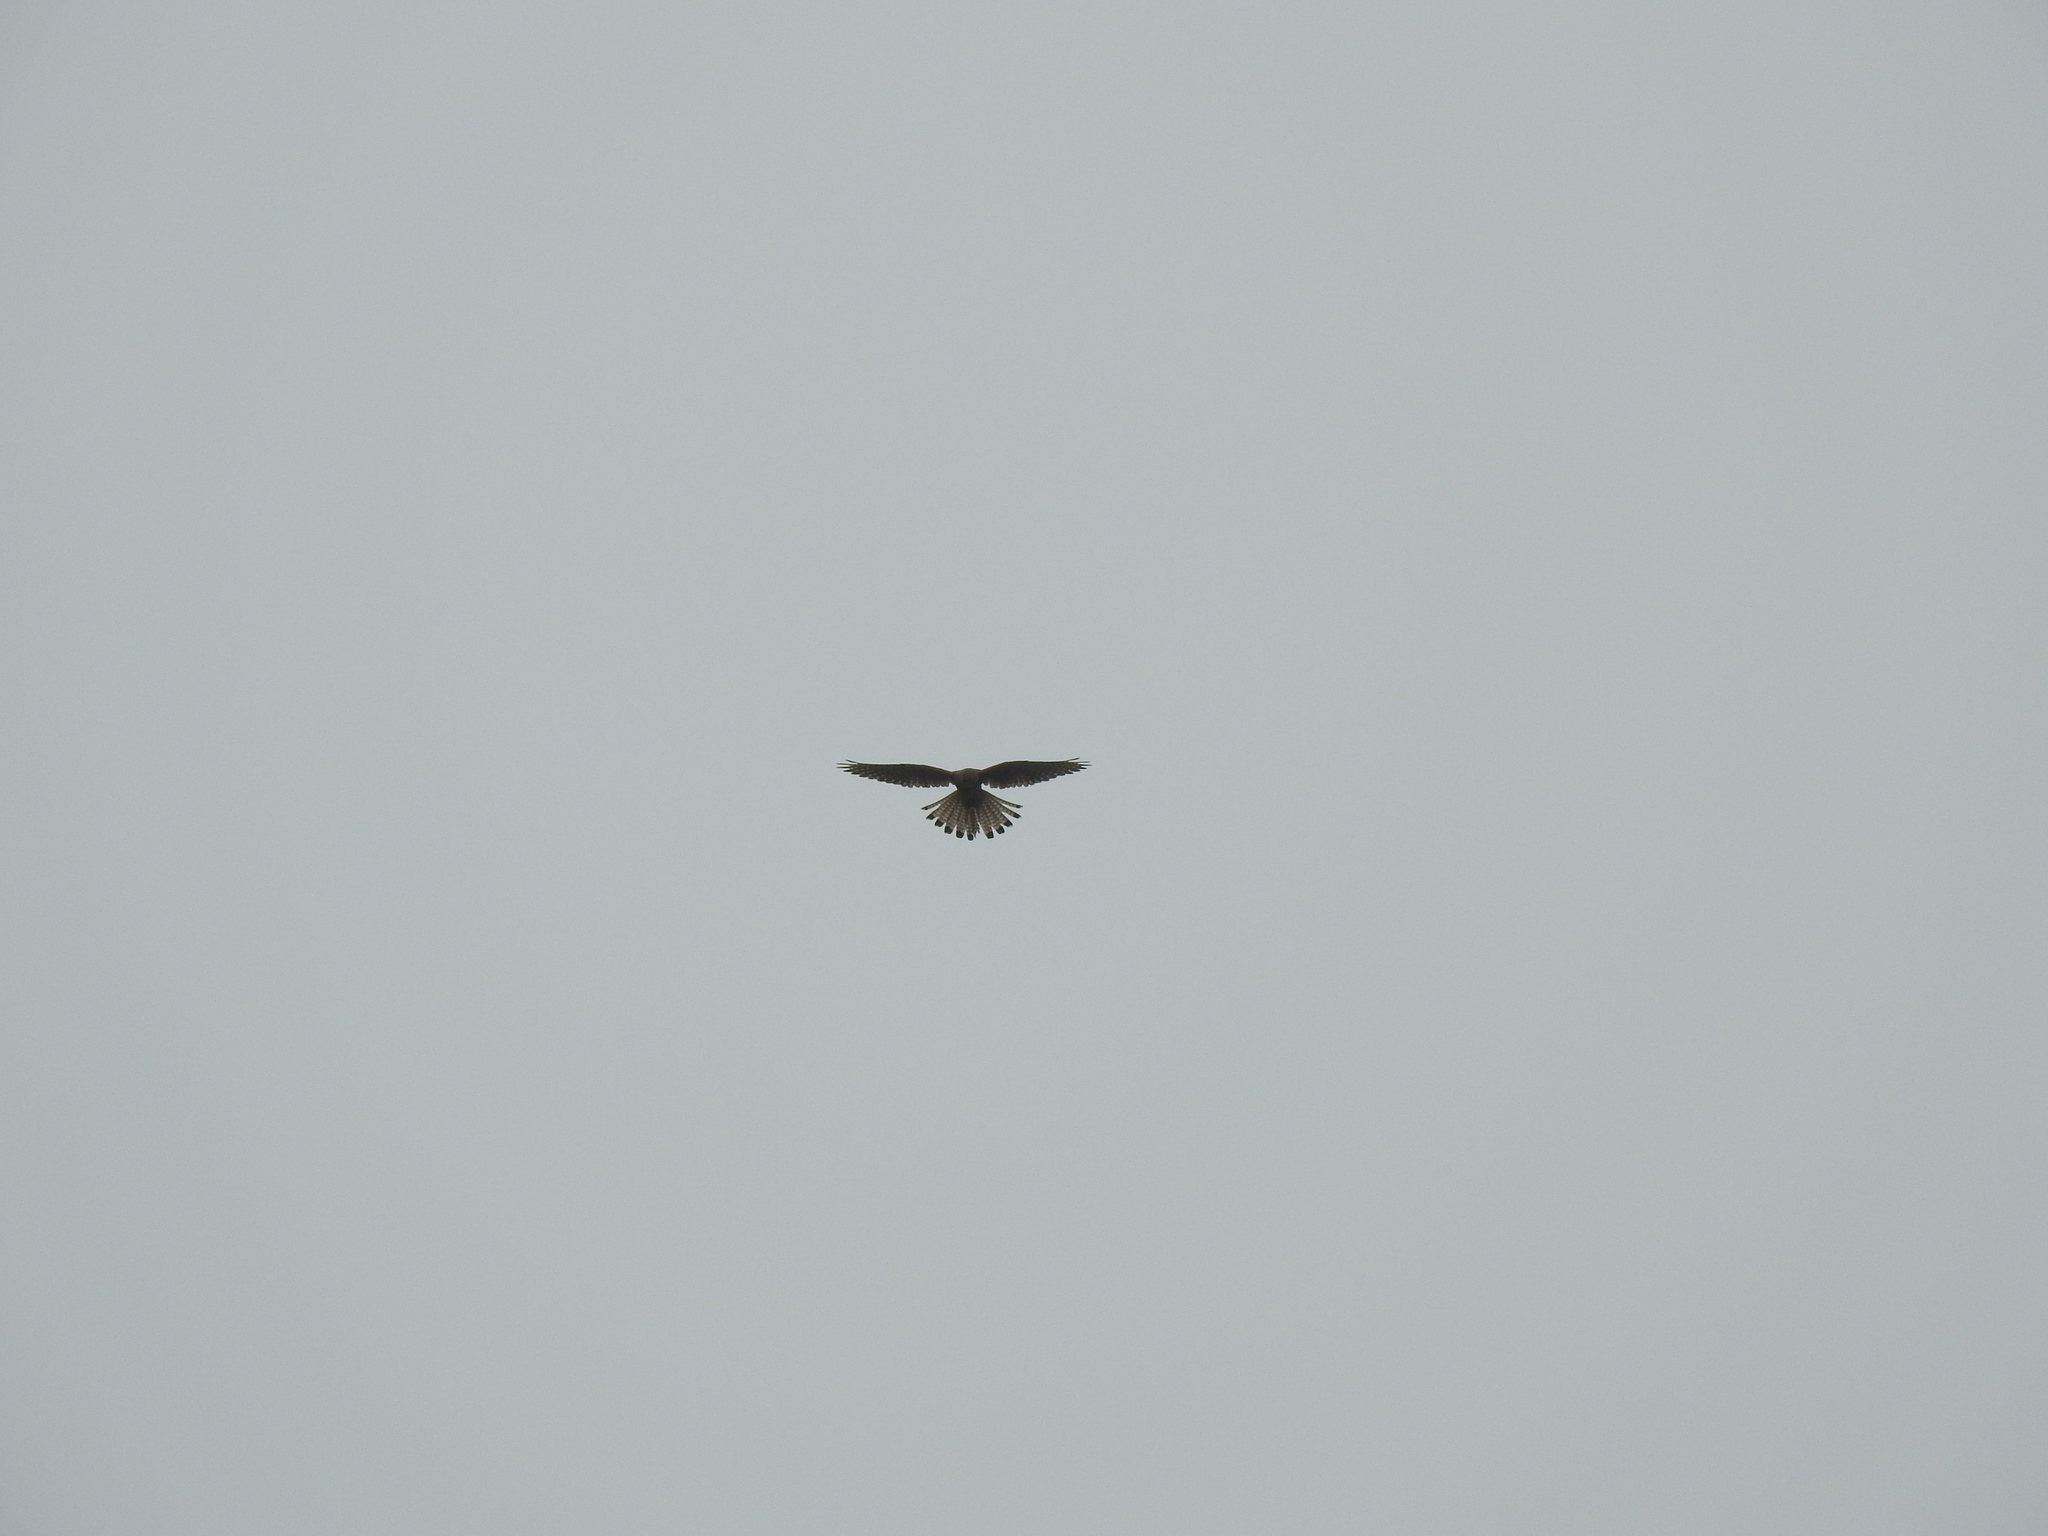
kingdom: Animalia
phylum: Chordata
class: Aves
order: Falconiformes
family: Falconidae
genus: Falco
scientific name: Falco tinnunculus
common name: Common kestrel
